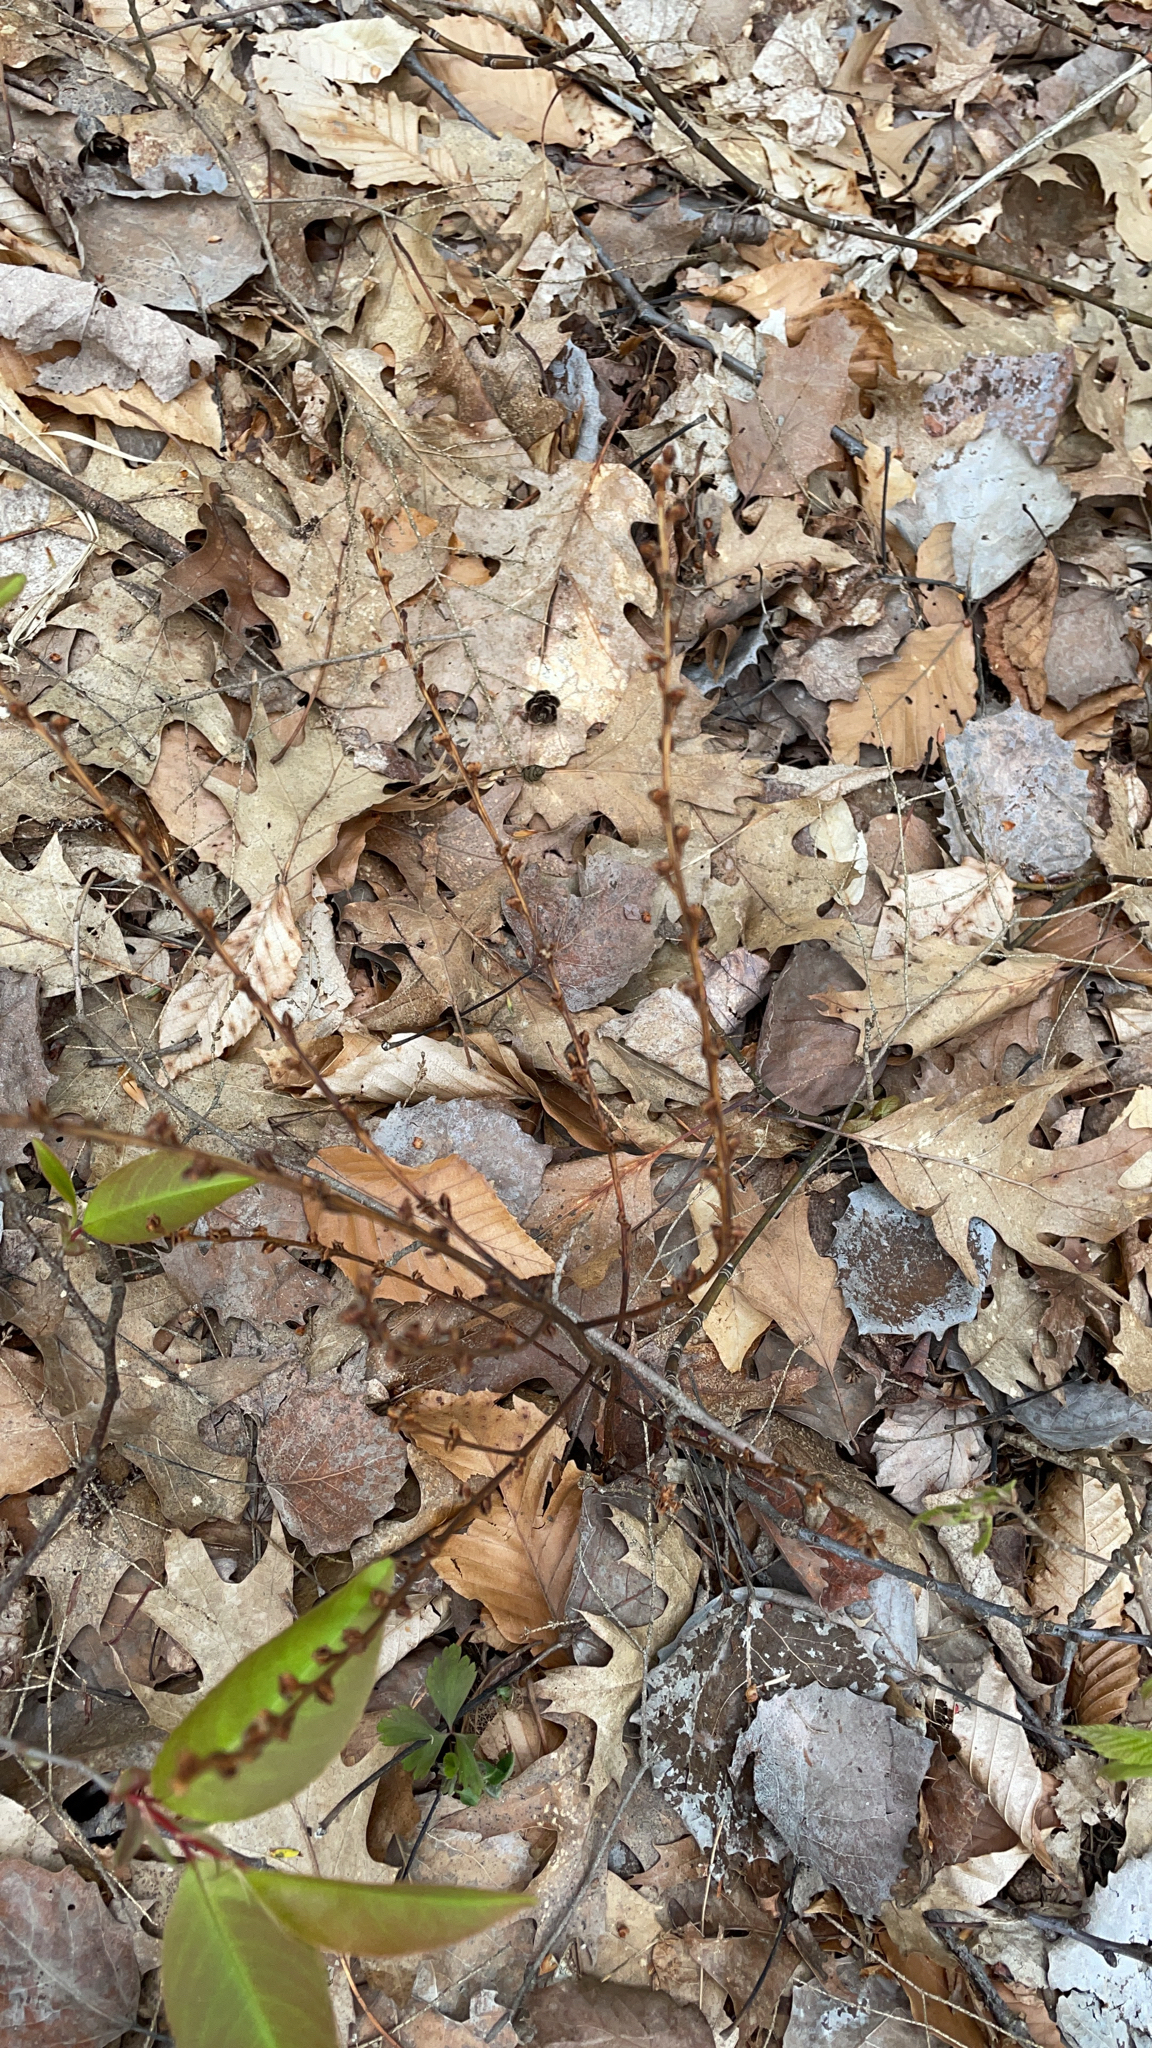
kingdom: Plantae
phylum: Tracheophyta
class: Magnoliopsida
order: Lamiales
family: Orobanchaceae
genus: Epifagus
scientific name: Epifagus virginiana
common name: Beechdrops
